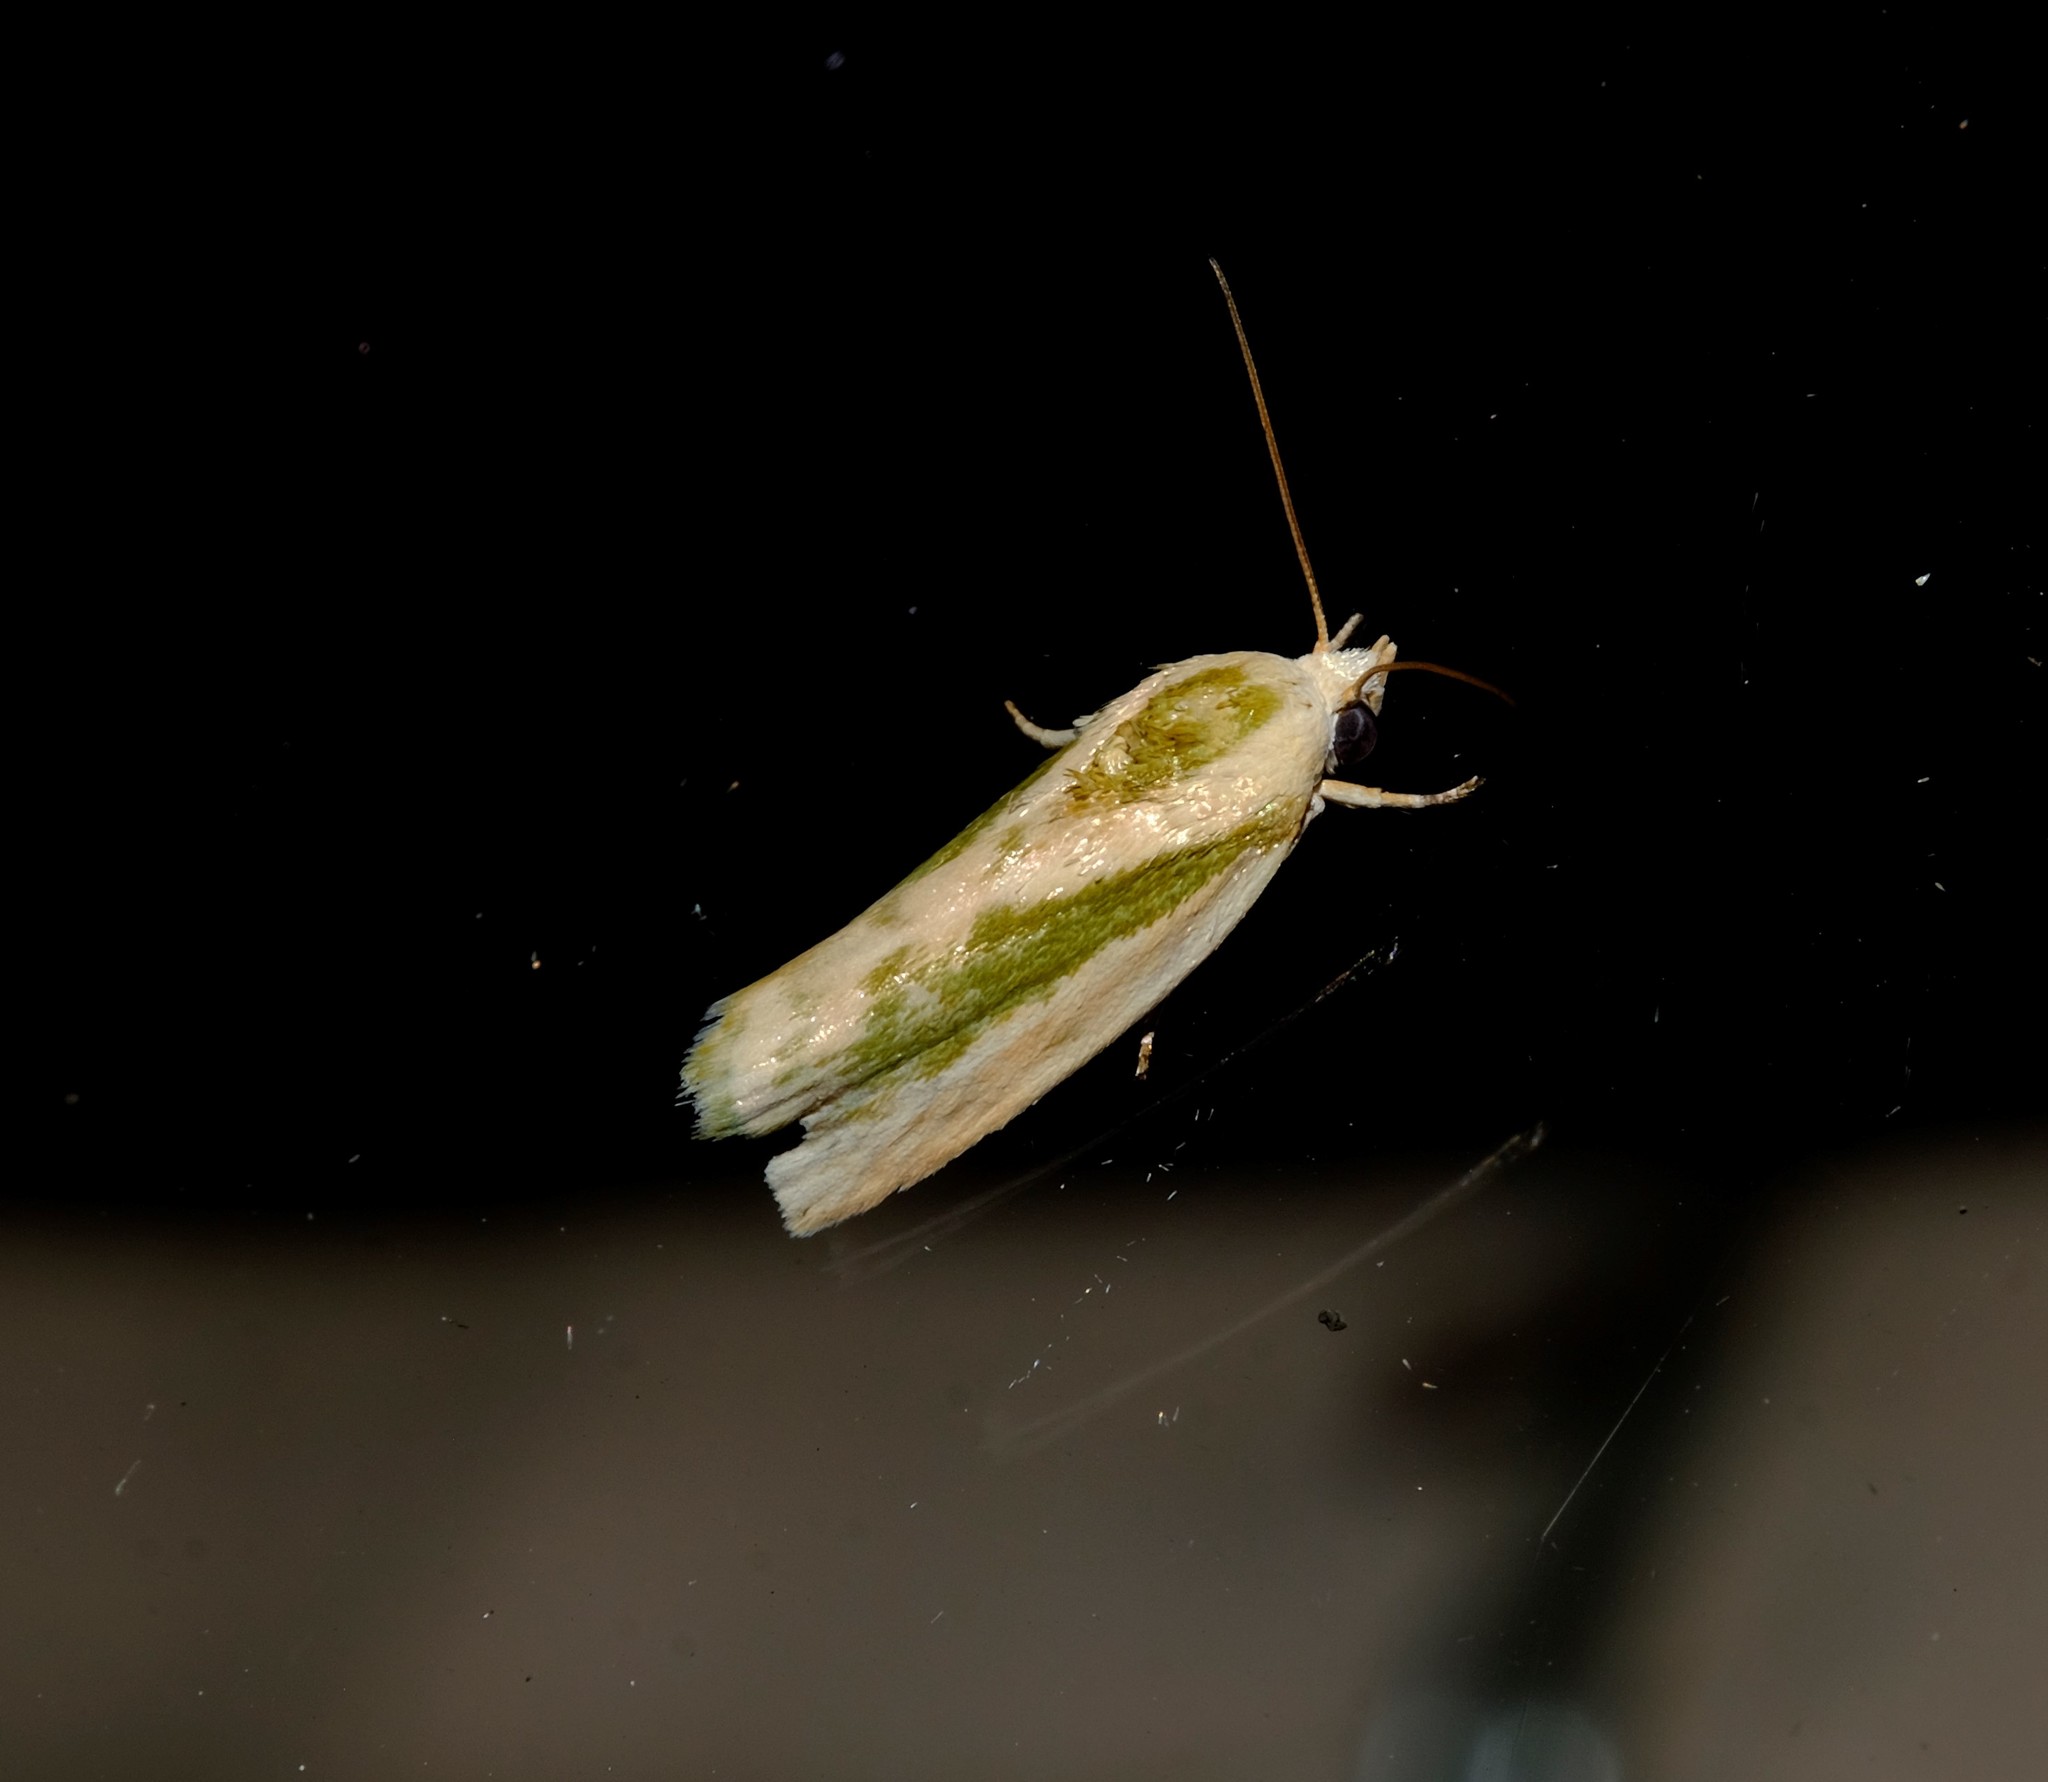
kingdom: Animalia
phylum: Arthropoda
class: Insecta
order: Lepidoptera
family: Nolidae
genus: Earias
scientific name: Earias huegeliana
